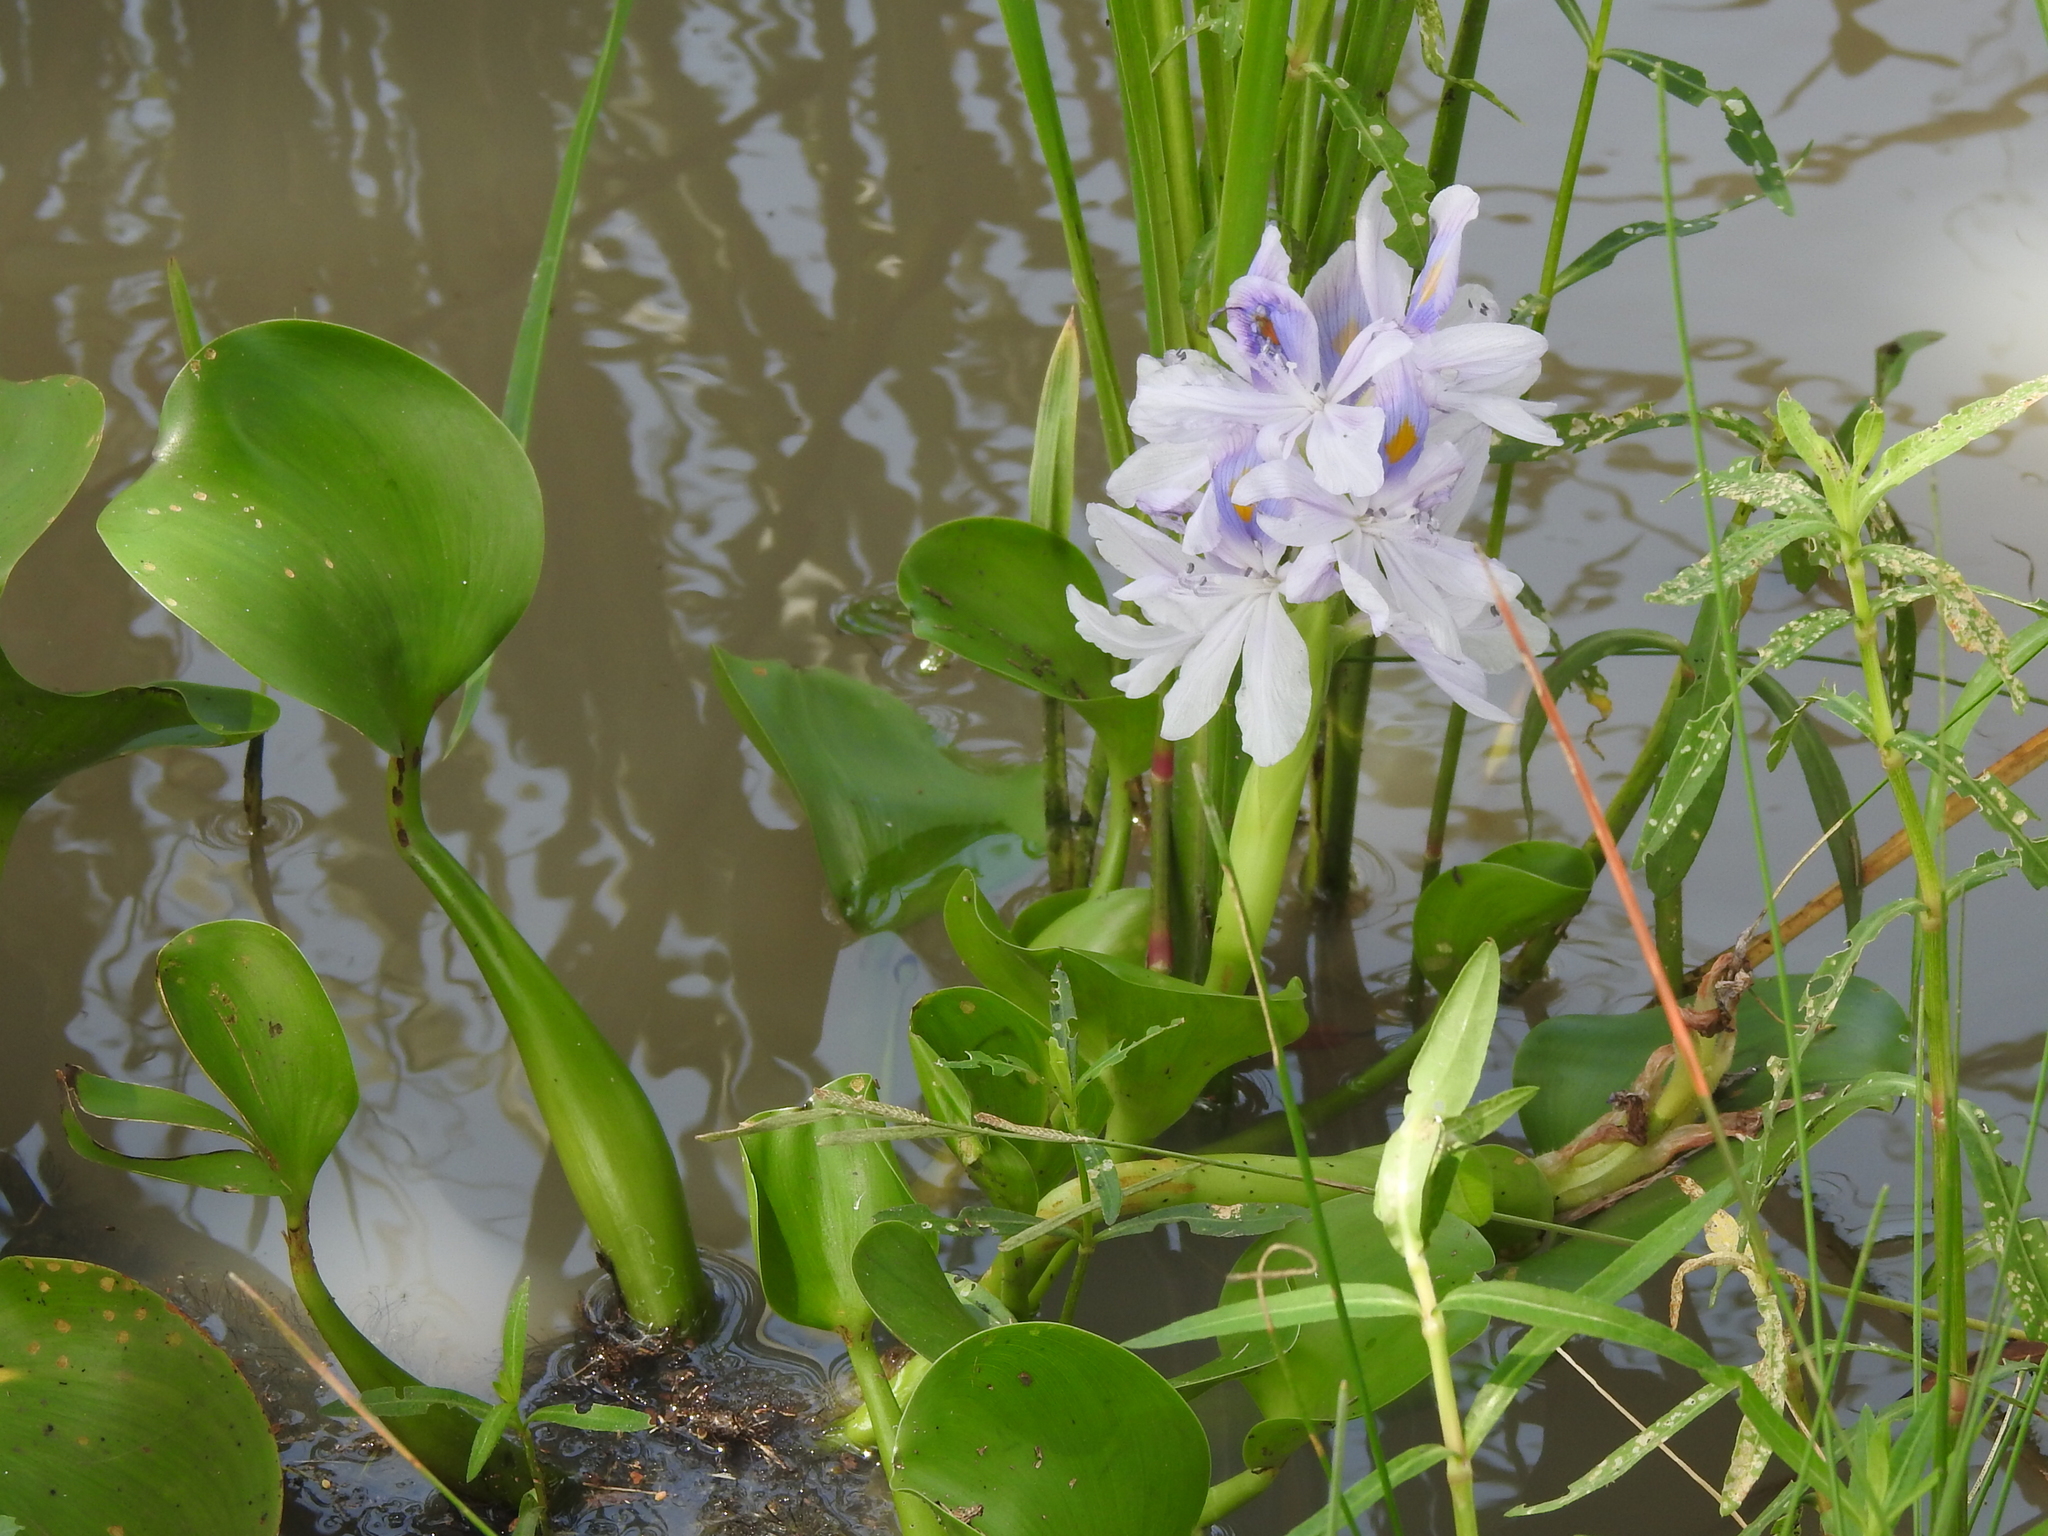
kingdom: Plantae
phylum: Tracheophyta
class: Liliopsida
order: Commelinales
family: Pontederiaceae
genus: Pontederia
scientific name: Pontederia crassipes
